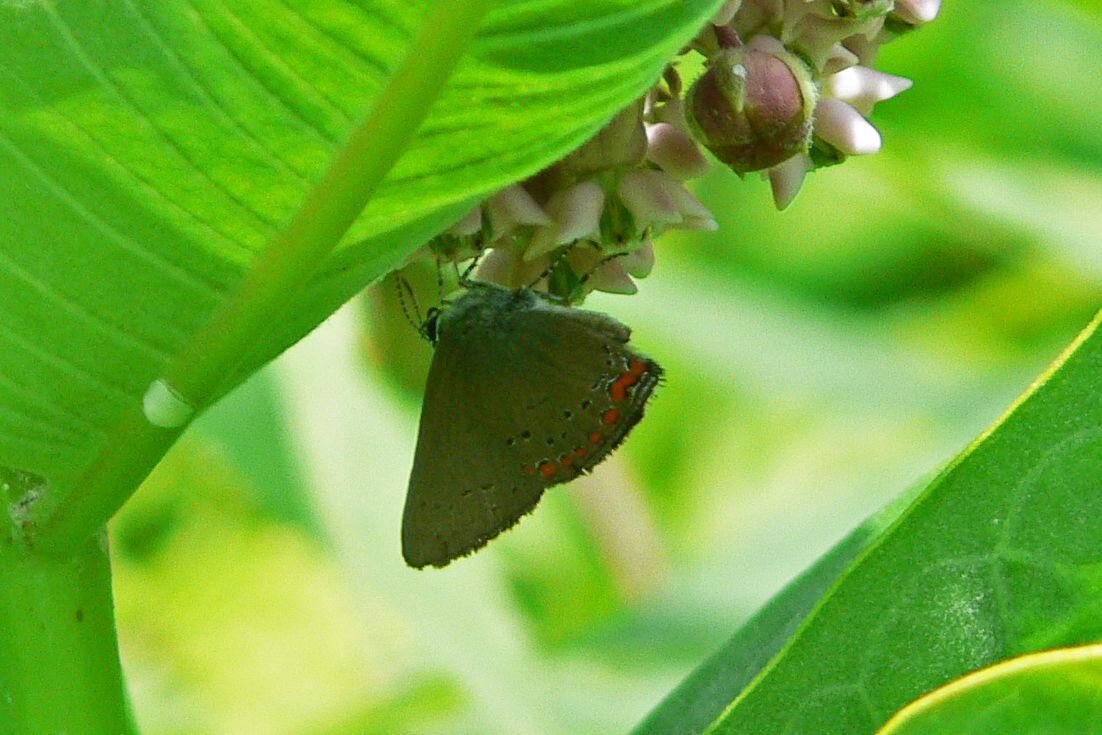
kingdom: Animalia
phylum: Arthropoda
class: Insecta
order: Lepidoptera
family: Lycaenidae
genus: Harkenclenus
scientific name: Harkenclenus titus
